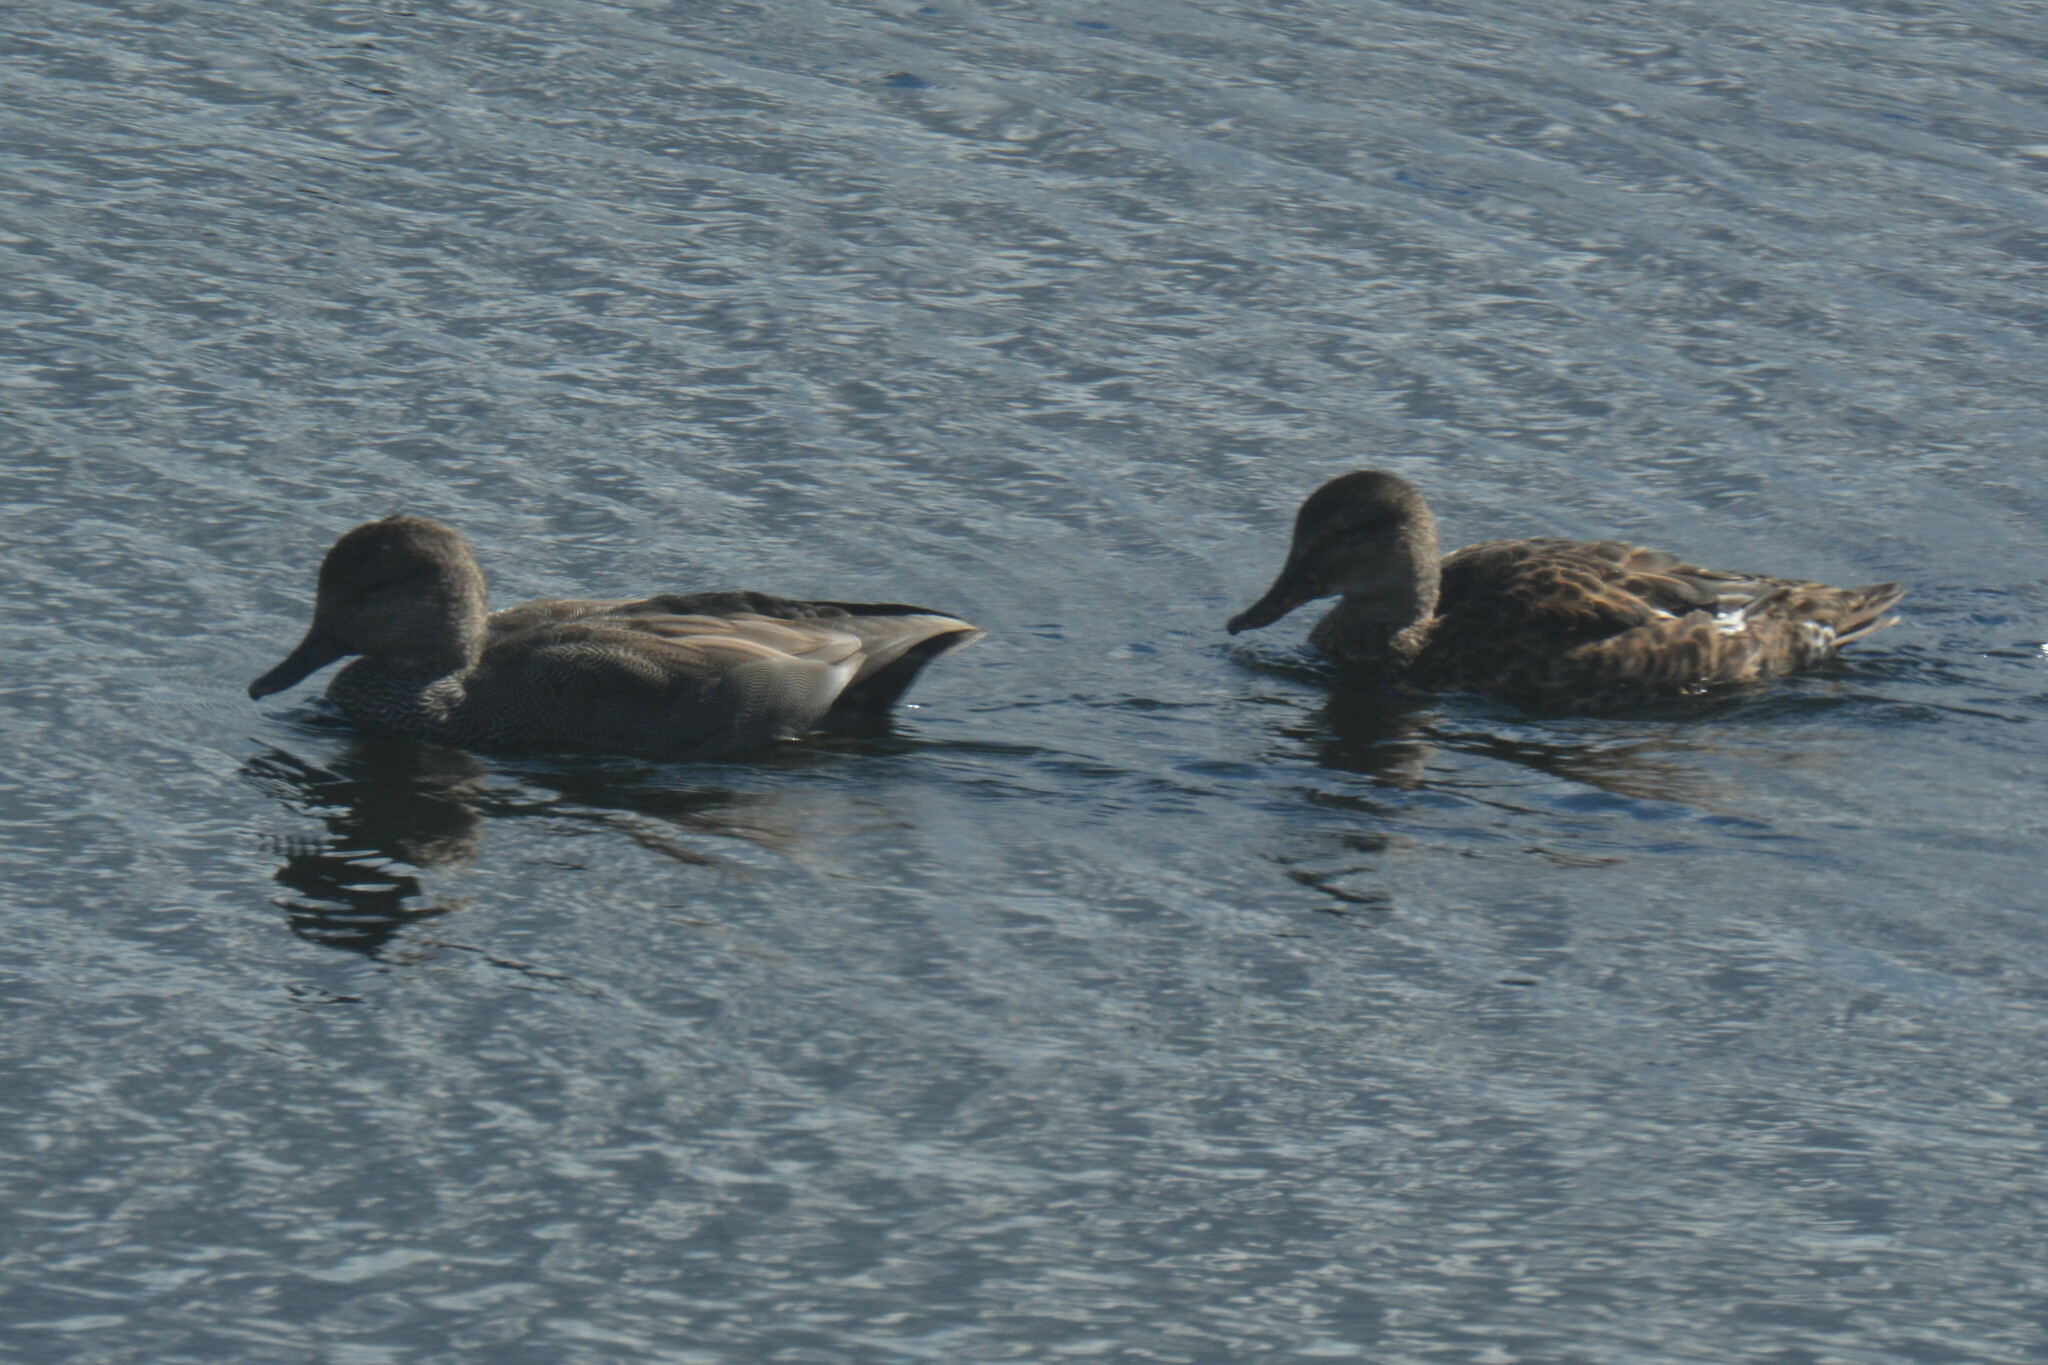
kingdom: Animalia
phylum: Chordata
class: Aves
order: Anseriformes
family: Anatidae
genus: Mareca
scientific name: Mareca strepera
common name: Gadwall
